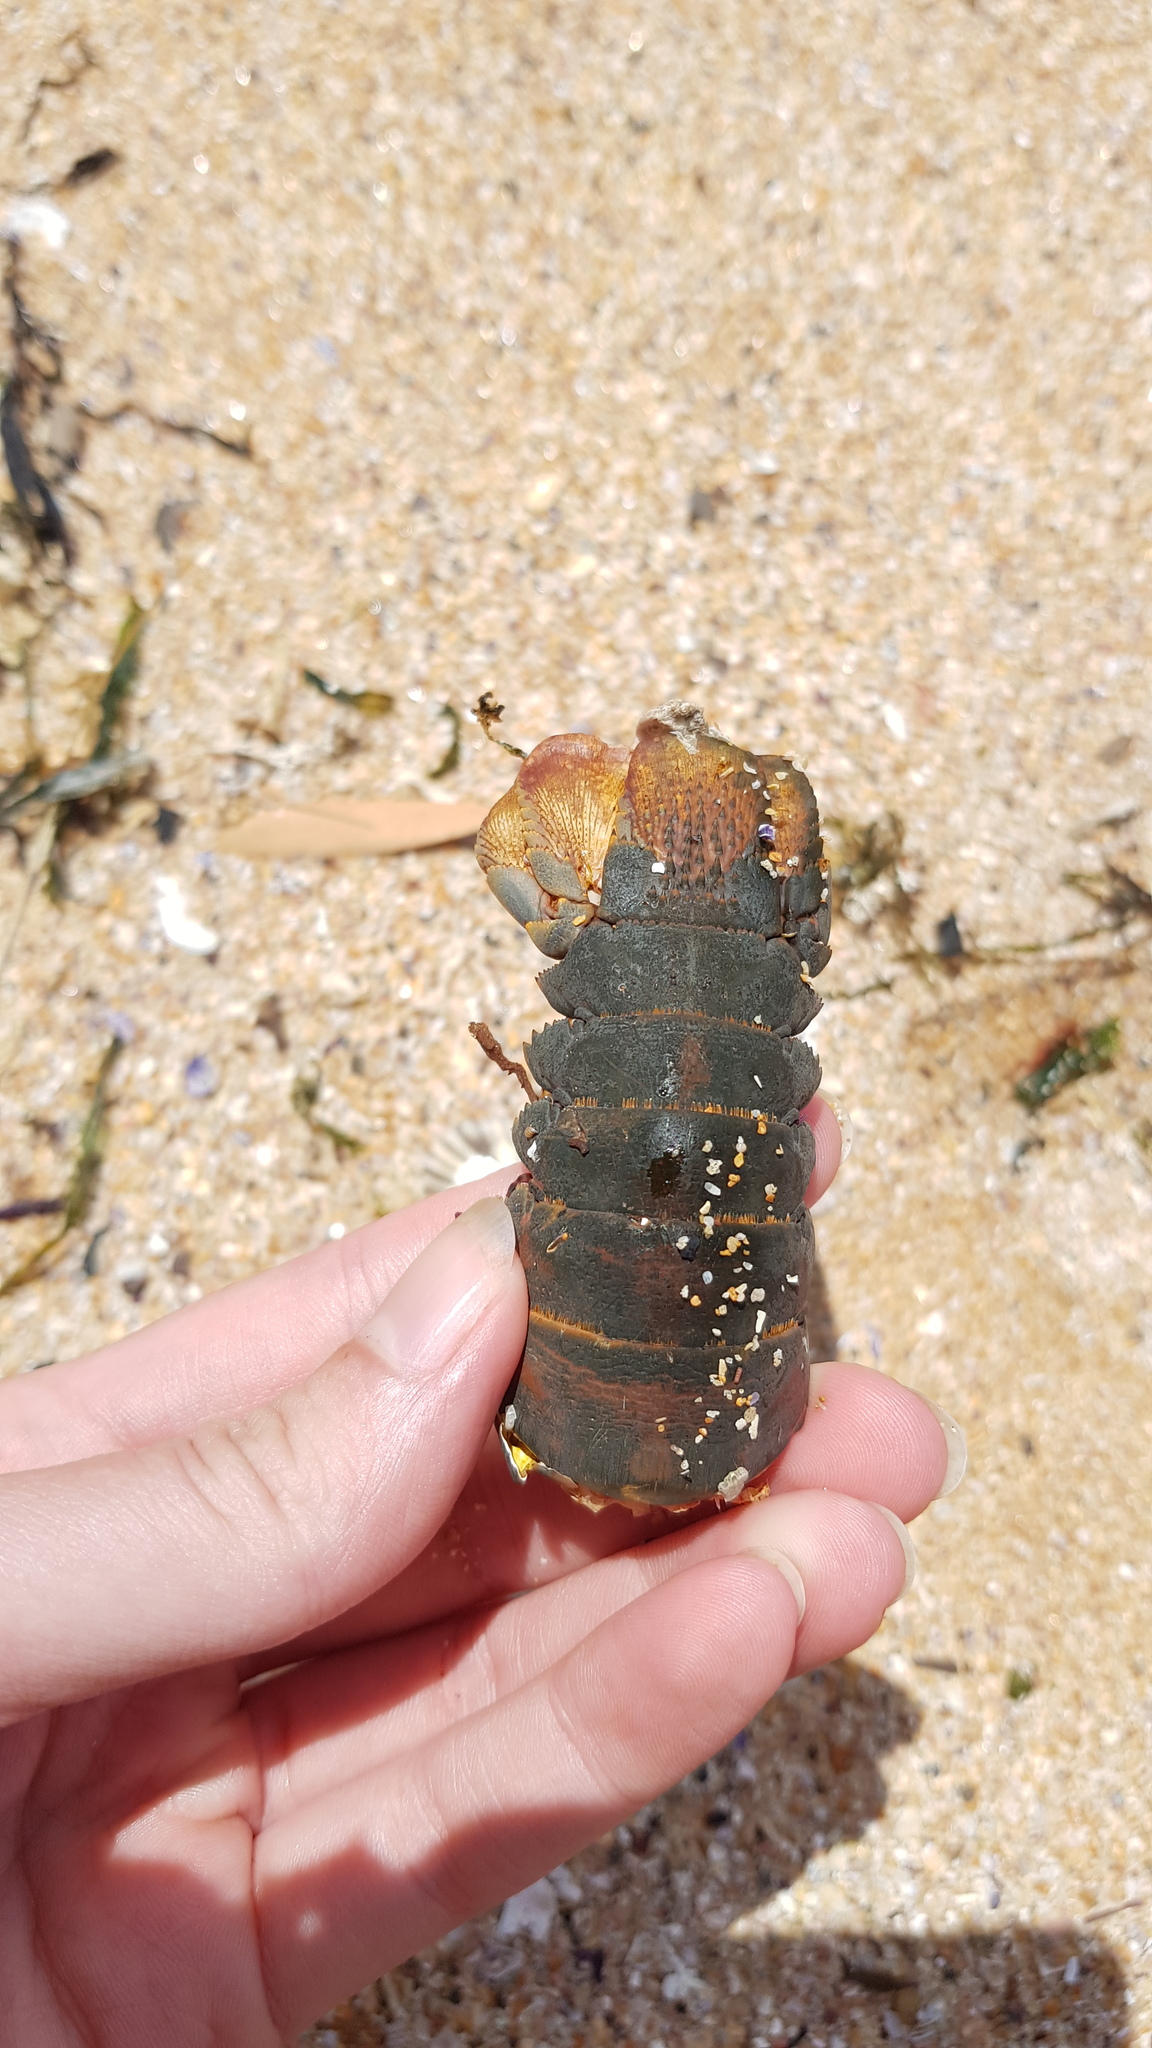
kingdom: Animalia
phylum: Arthropoda
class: Malacostraca
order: Decapoda
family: Palinuridae
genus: Sagmariasus
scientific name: Sagmariasus verreauxi
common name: Green rock lobster
